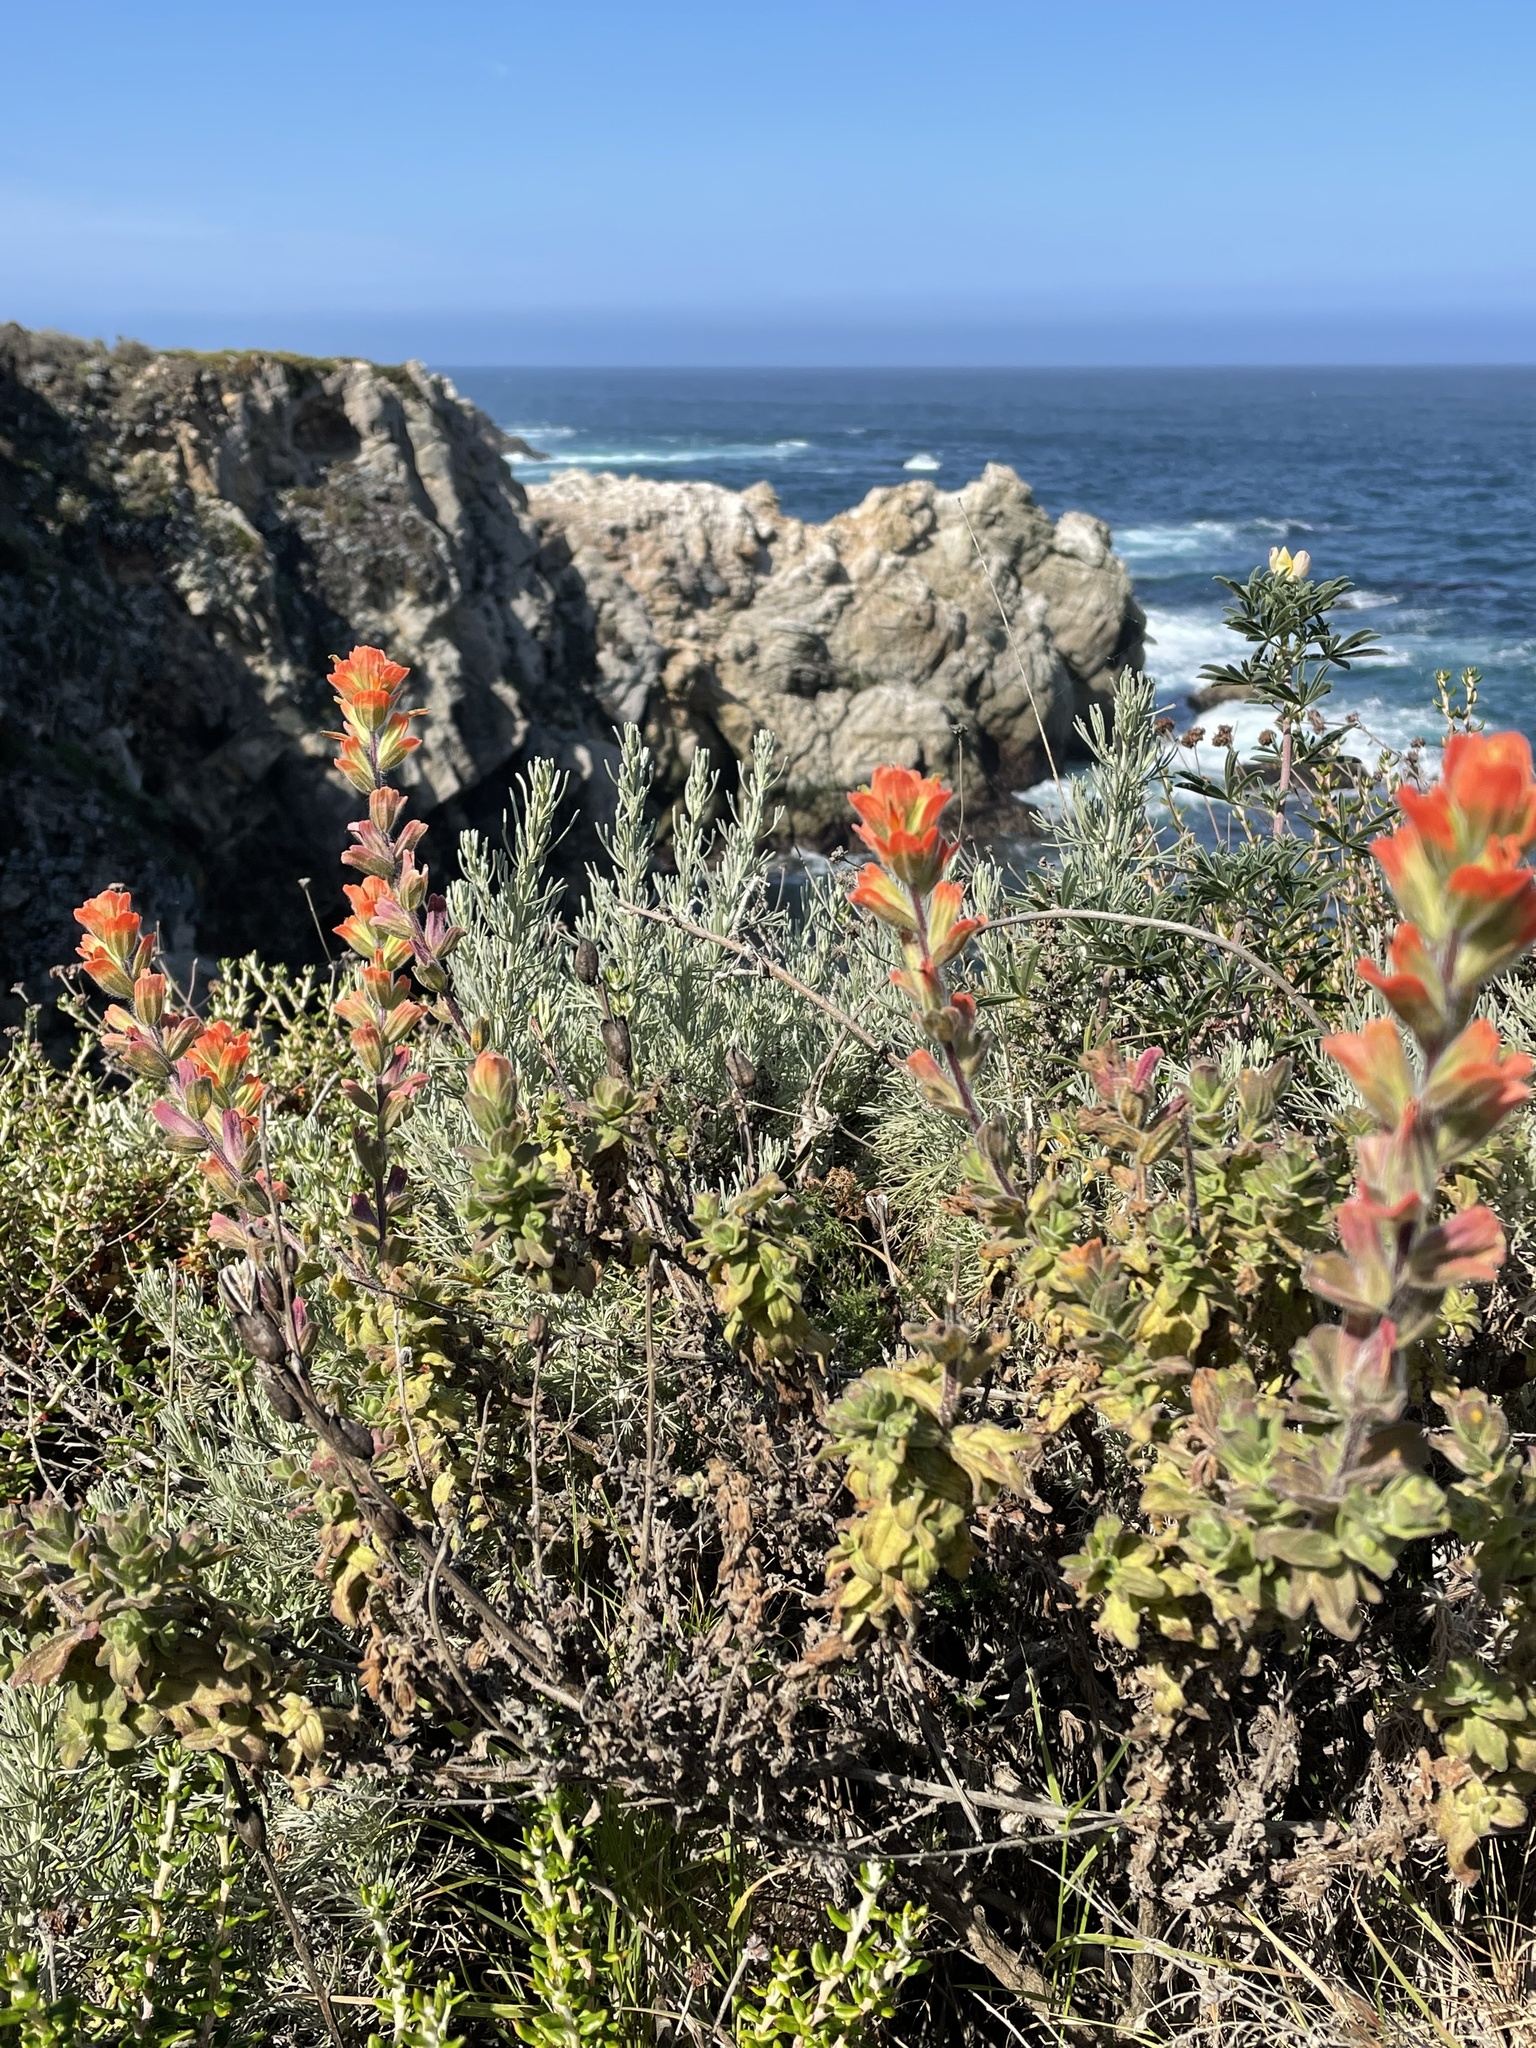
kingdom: Plantae
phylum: Tracheophyta
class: Magnoliopsida
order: Lamiales
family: Orobanchaceae
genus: Castilleja
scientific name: Castilleja latifolia
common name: Monterey indian paintbrush
